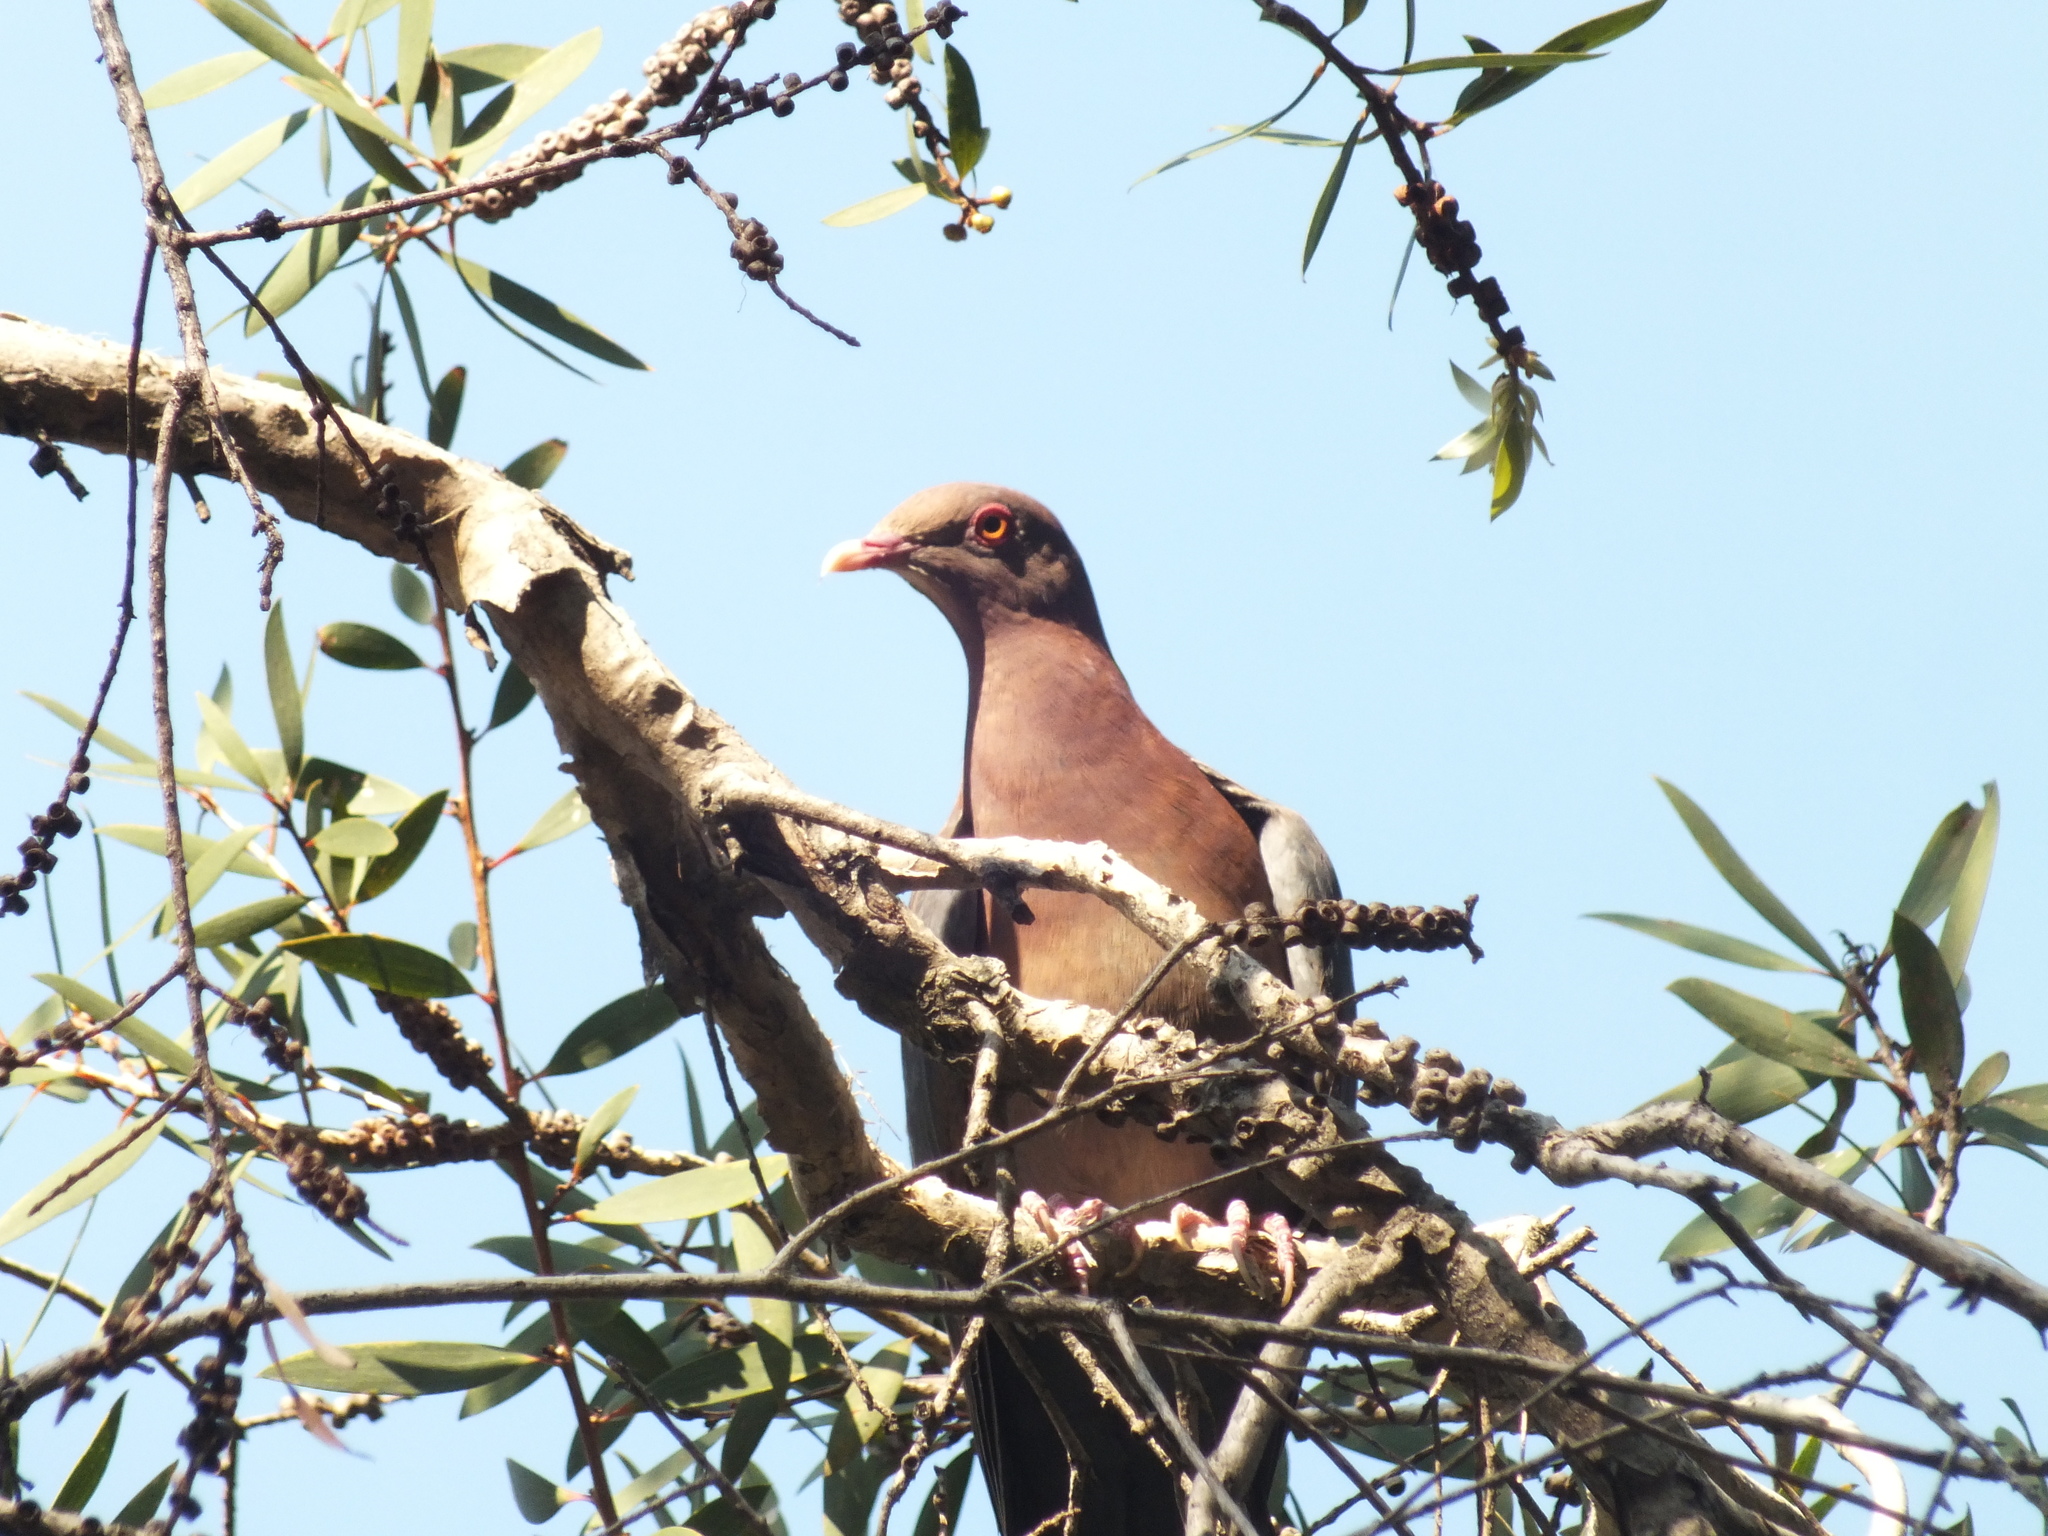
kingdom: Animalia
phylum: Chordata
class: Aves
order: Columbiformes
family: Columbidae
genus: Patagioenas
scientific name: Patagioenas flavirostris
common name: Red-billed pigeon
